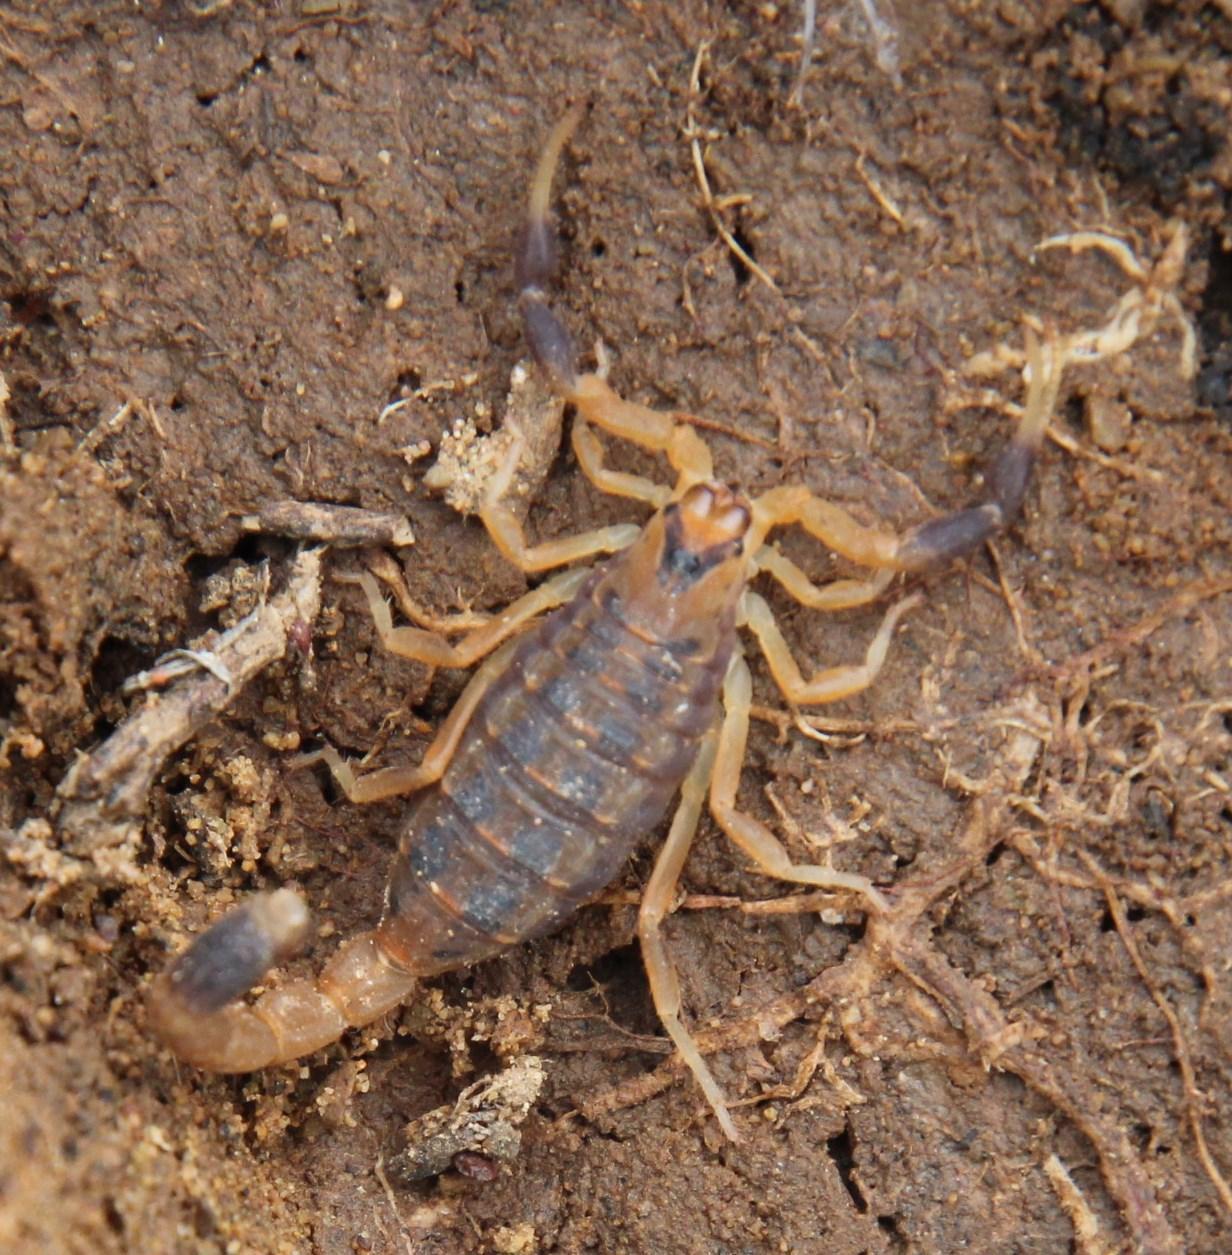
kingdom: Animalia
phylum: Arthropoda
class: Arachnida
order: Scorpiones
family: Buthidae
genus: Uroplectes
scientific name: Uroplectes triangulifer
